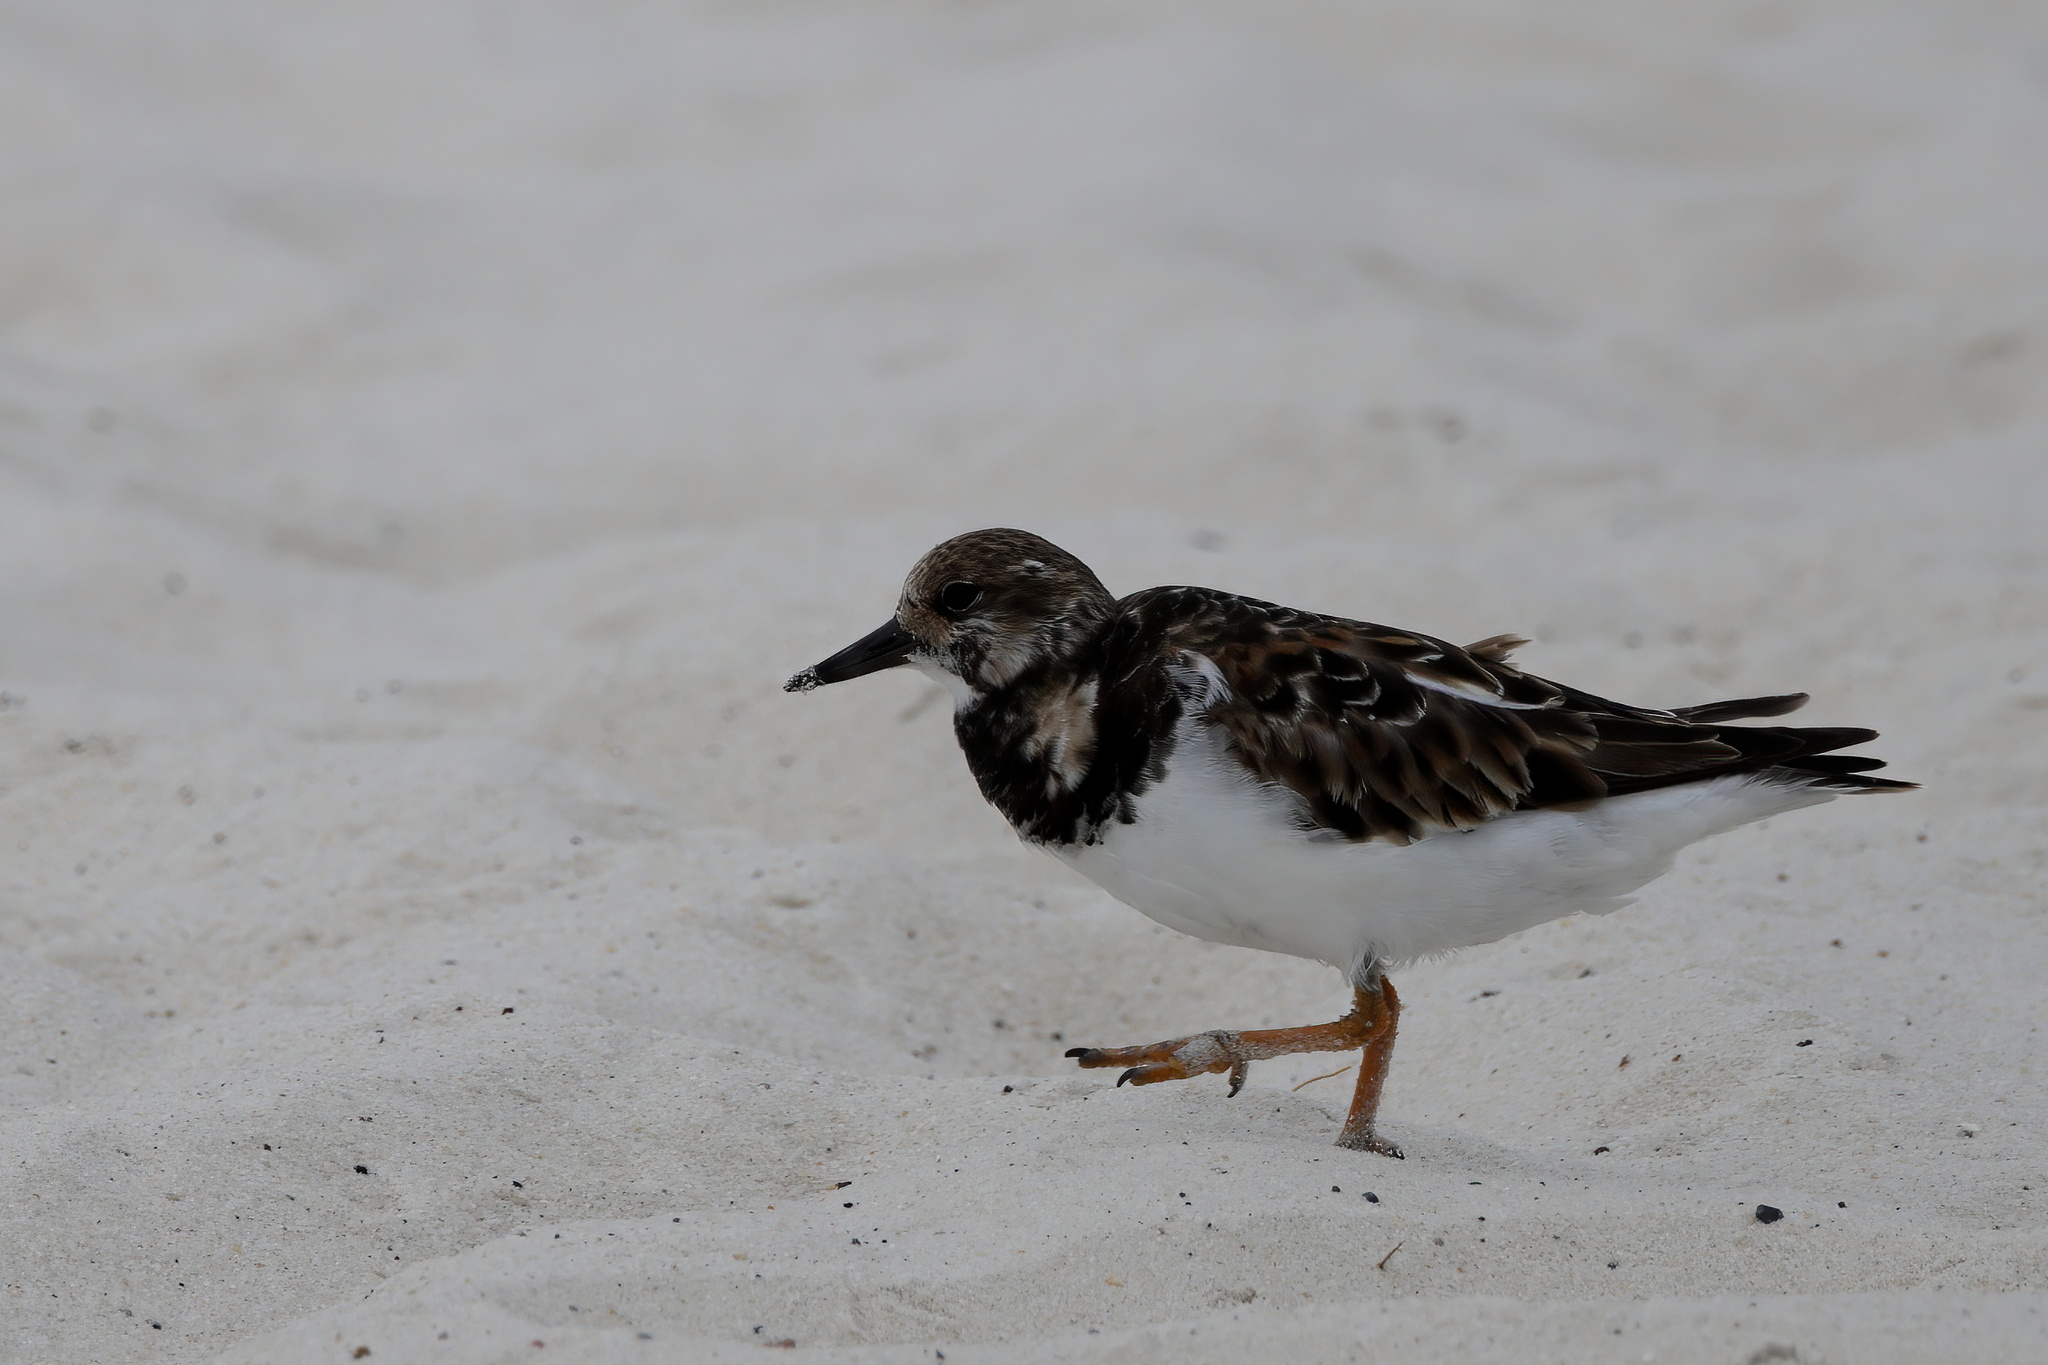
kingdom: Animalia
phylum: Chordata
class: Aves
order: Charadriiformes
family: Scolopacidae
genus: Arenaria
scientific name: Arenaria interpres
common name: Ruddy turnstone
